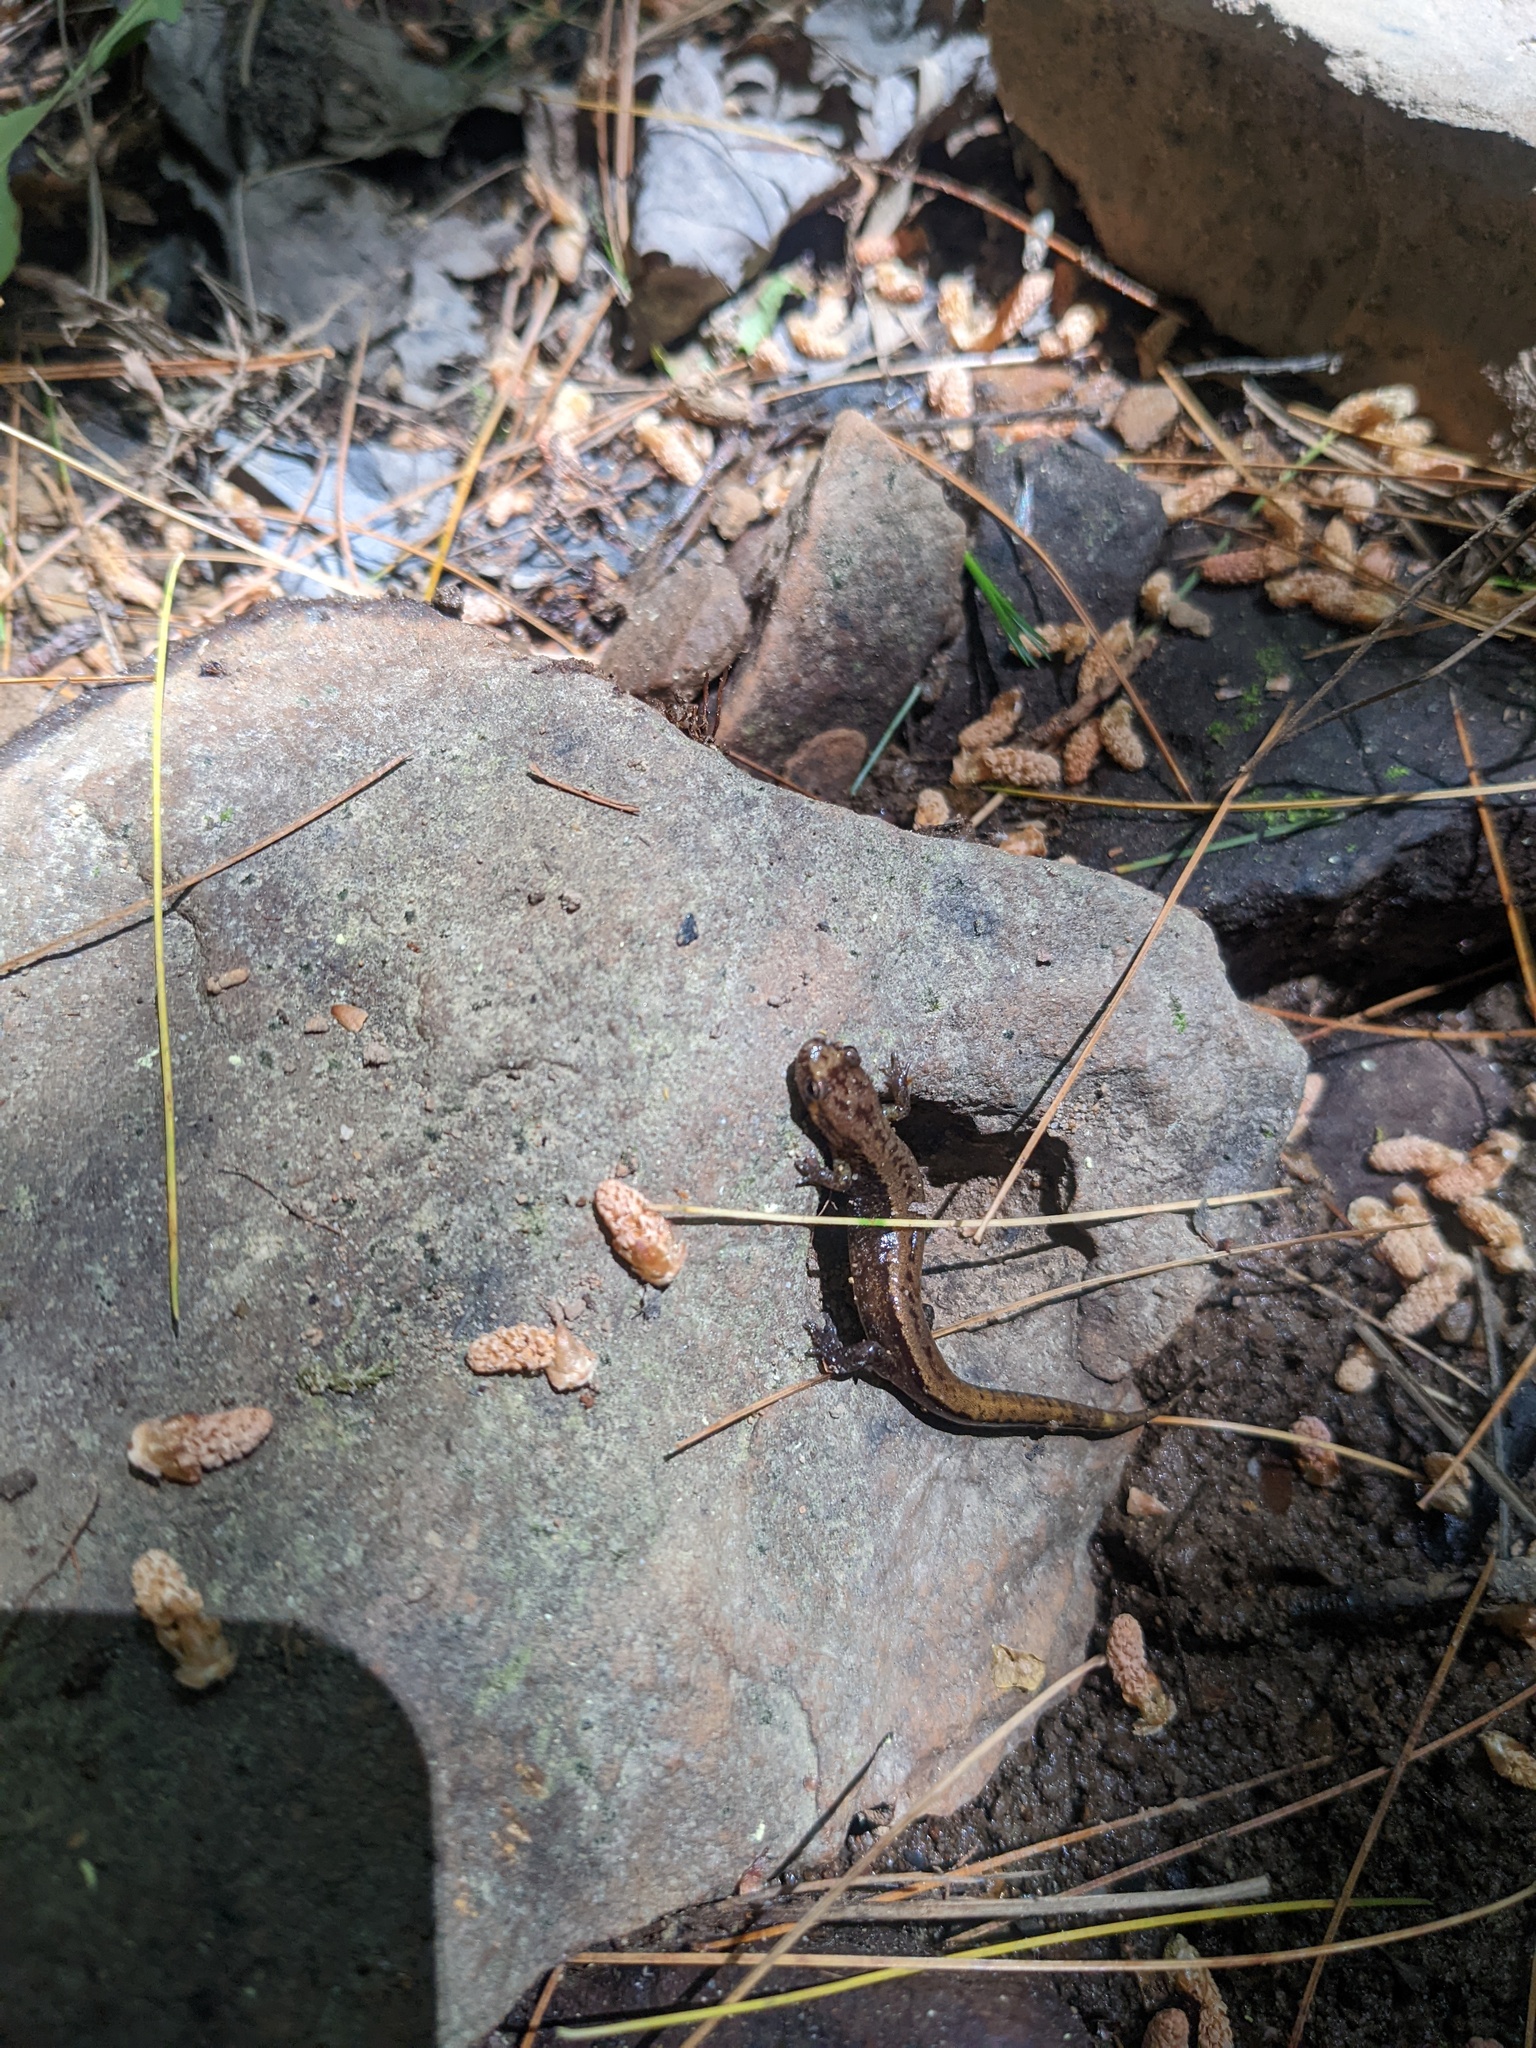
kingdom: Animalia
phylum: Chordata
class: Amphibia
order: Caudata
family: Plethodontidae
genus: Desmognathus
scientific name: Desmognathus ochrophaeus
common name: Allegheny mountain dusky salamander
